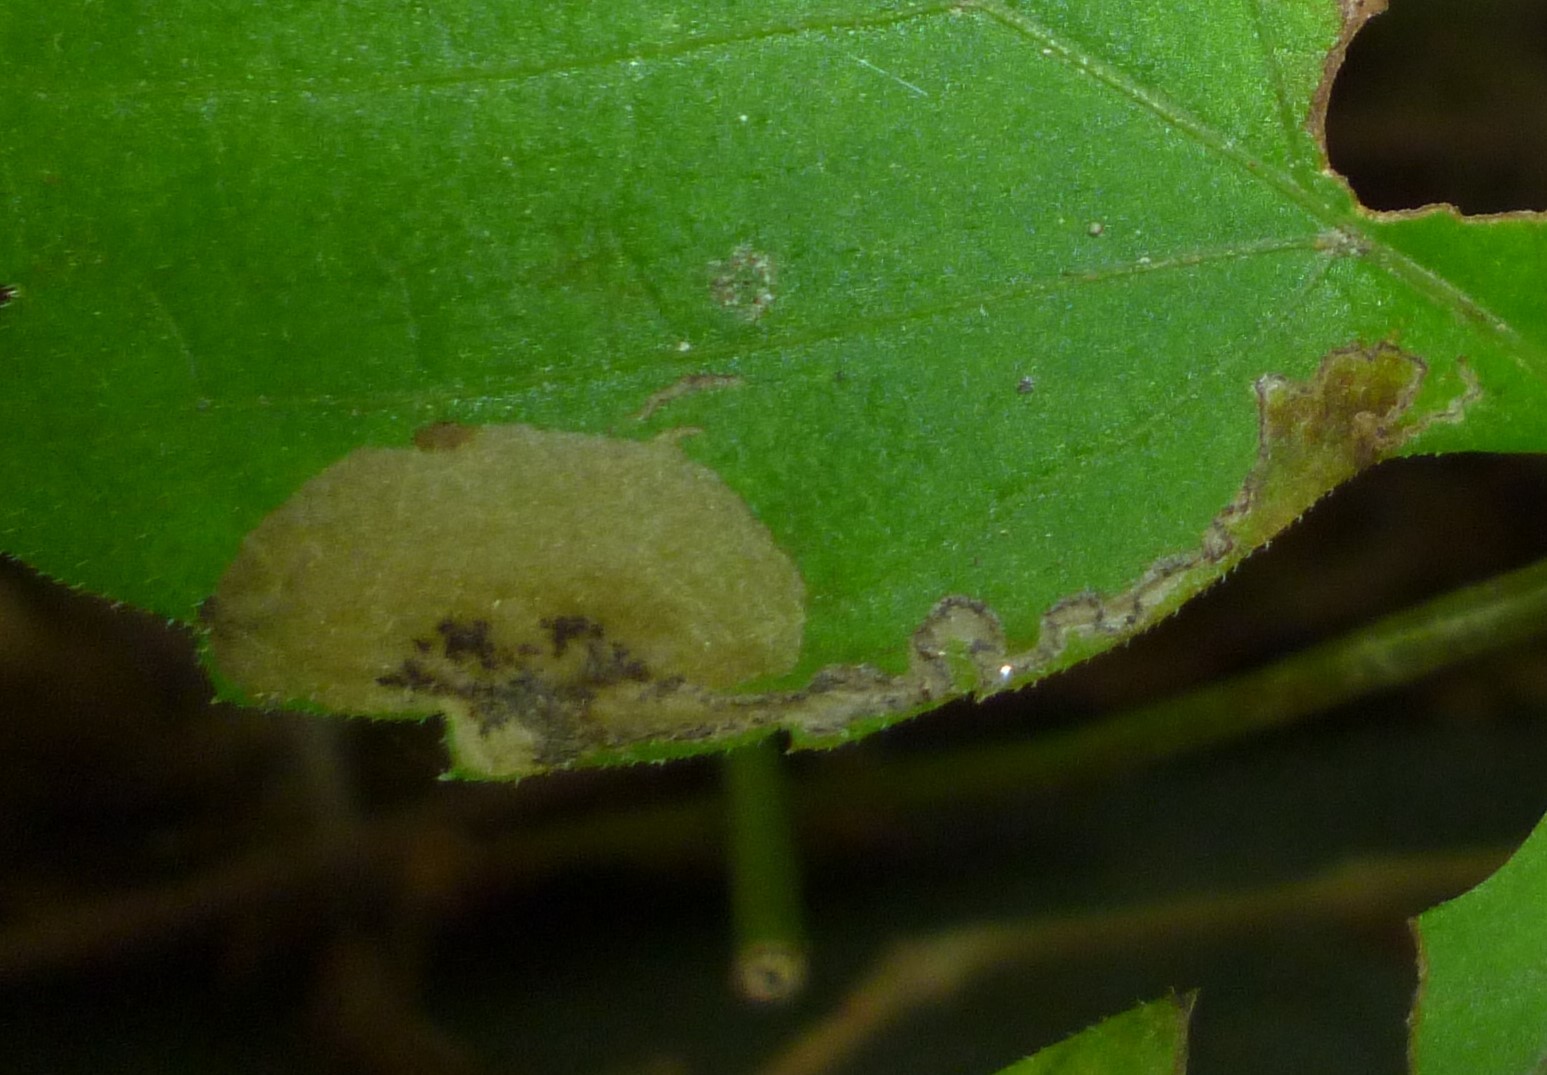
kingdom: Animalia
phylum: Arthropoda
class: Insecta
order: Lepidoptera
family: Heliozelidae
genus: Antispila
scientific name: Antispila ampelopsifoliella
